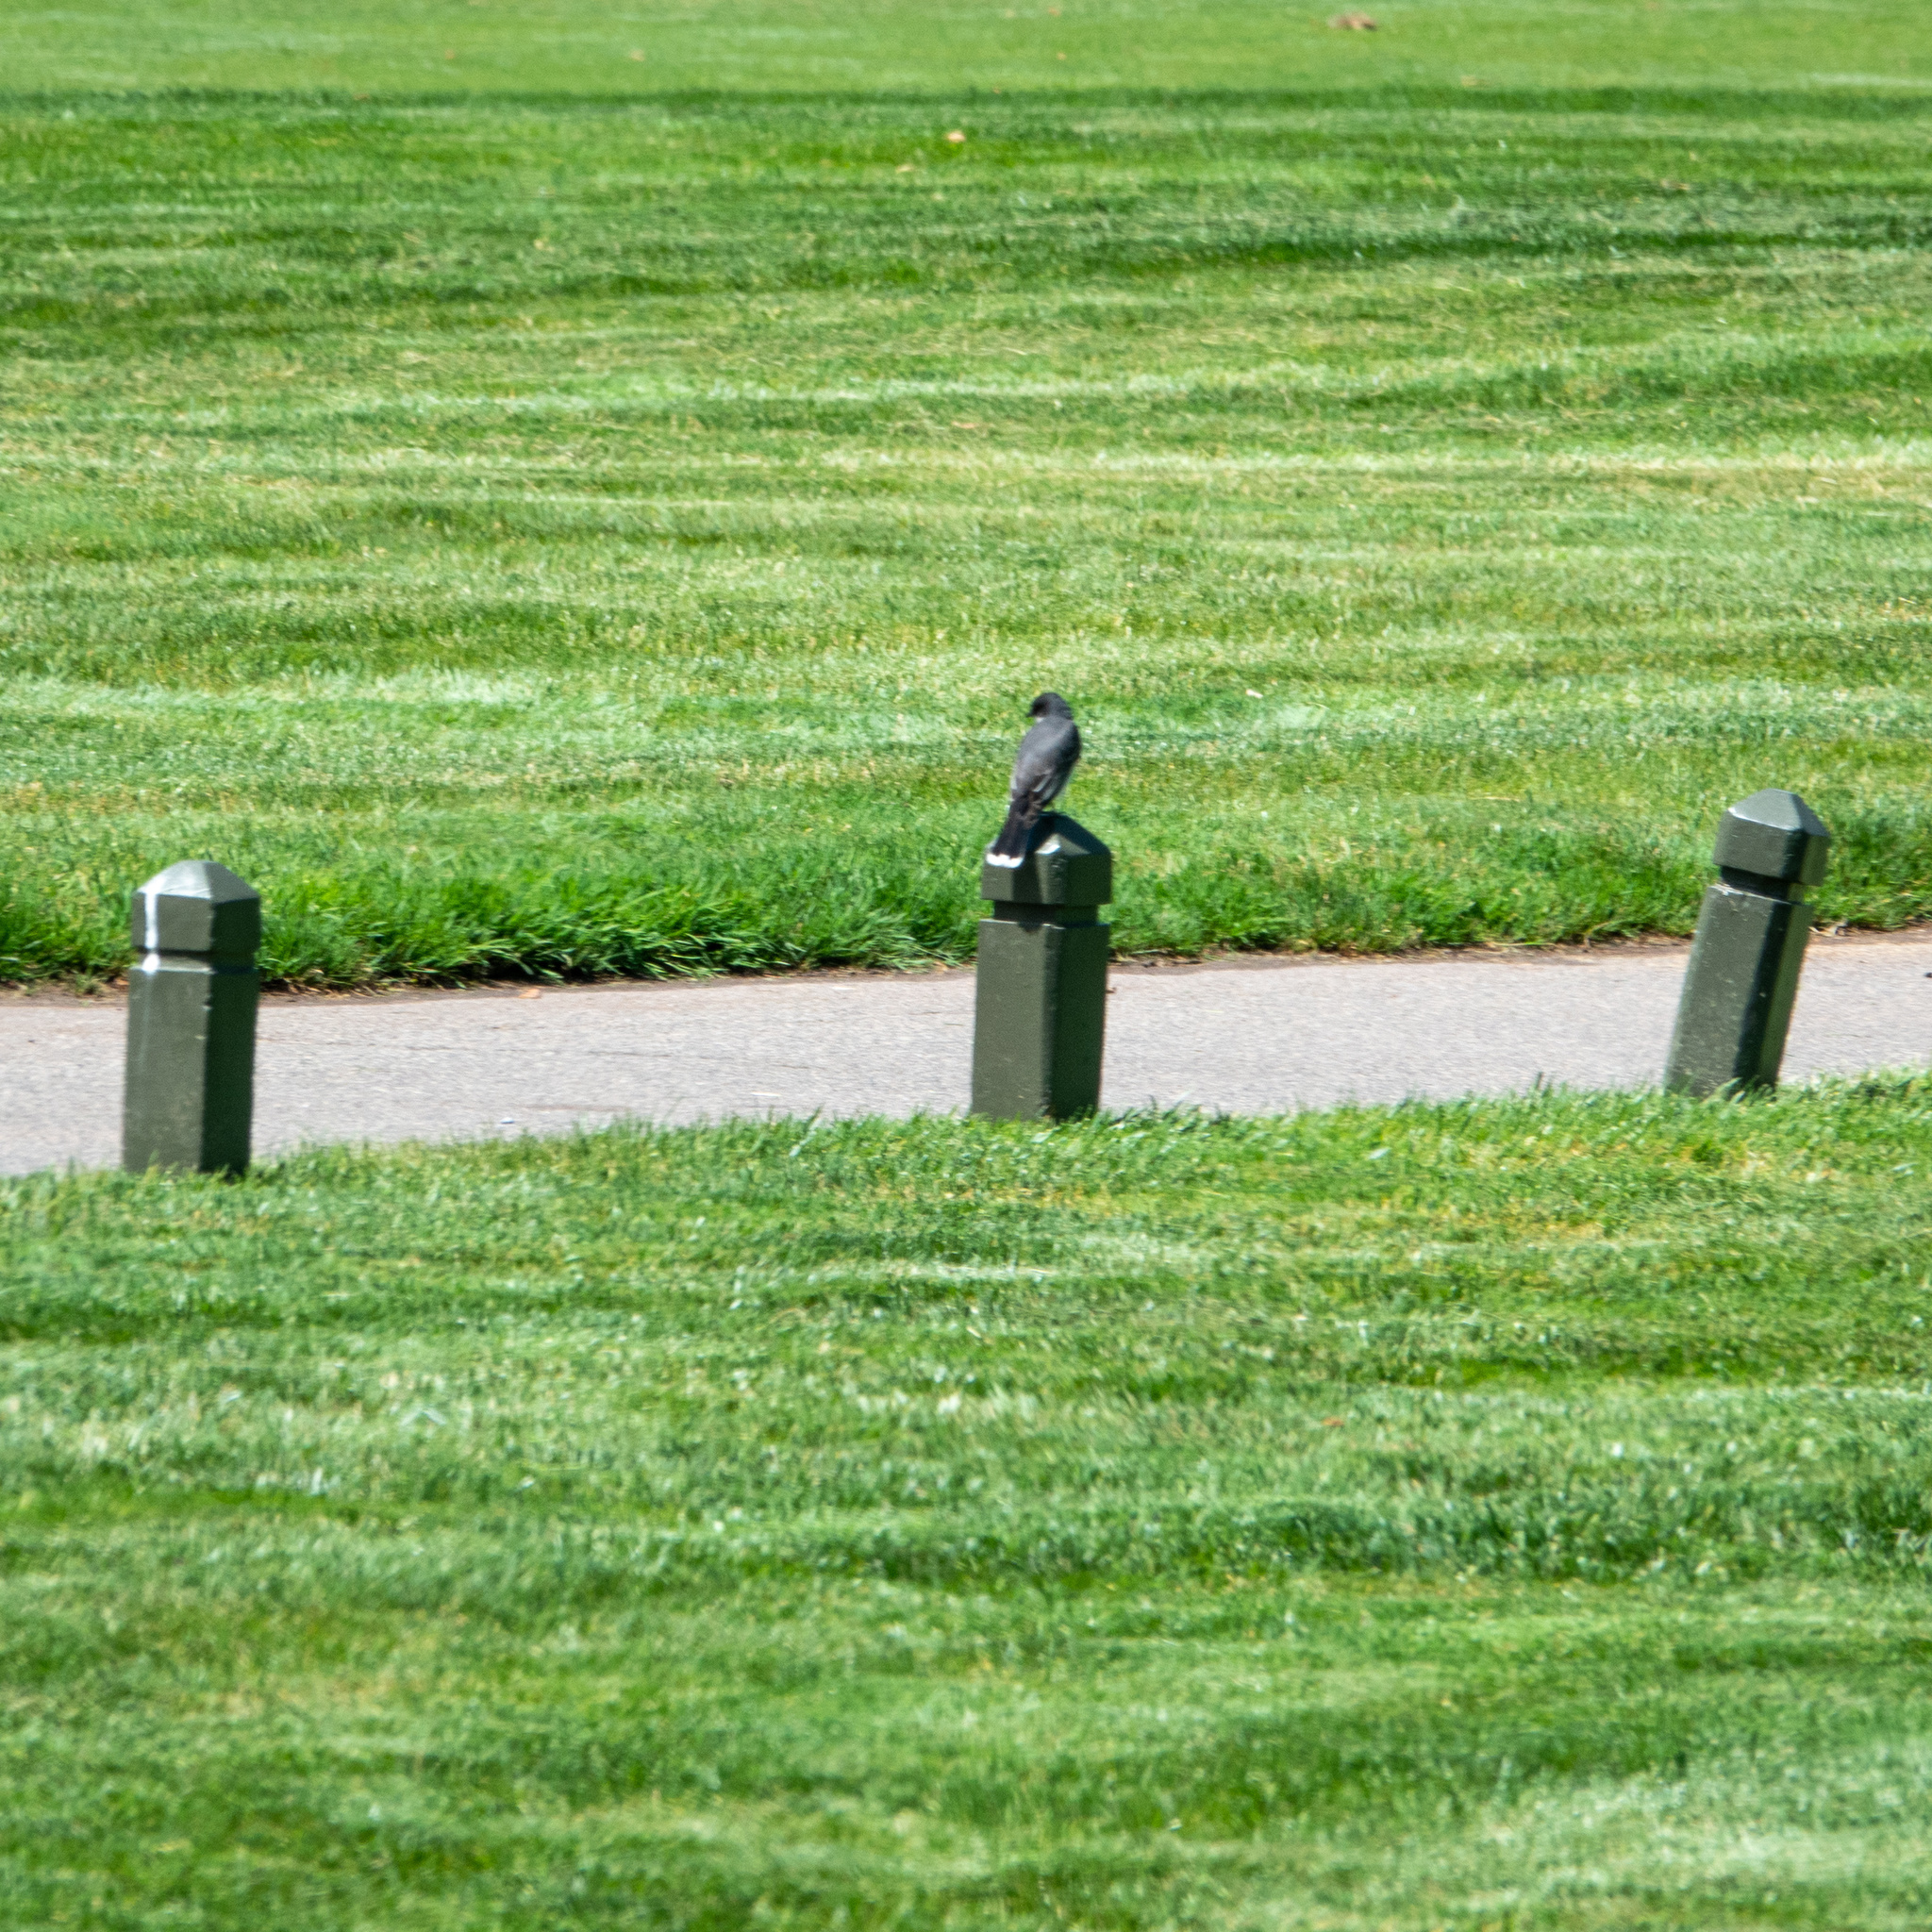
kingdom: Animalia
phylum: Chordata
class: Aves
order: Passeriformes
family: Tyrannidae
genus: Tyrannus
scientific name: Tyrannus tyrannus
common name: Eastern kingbird
